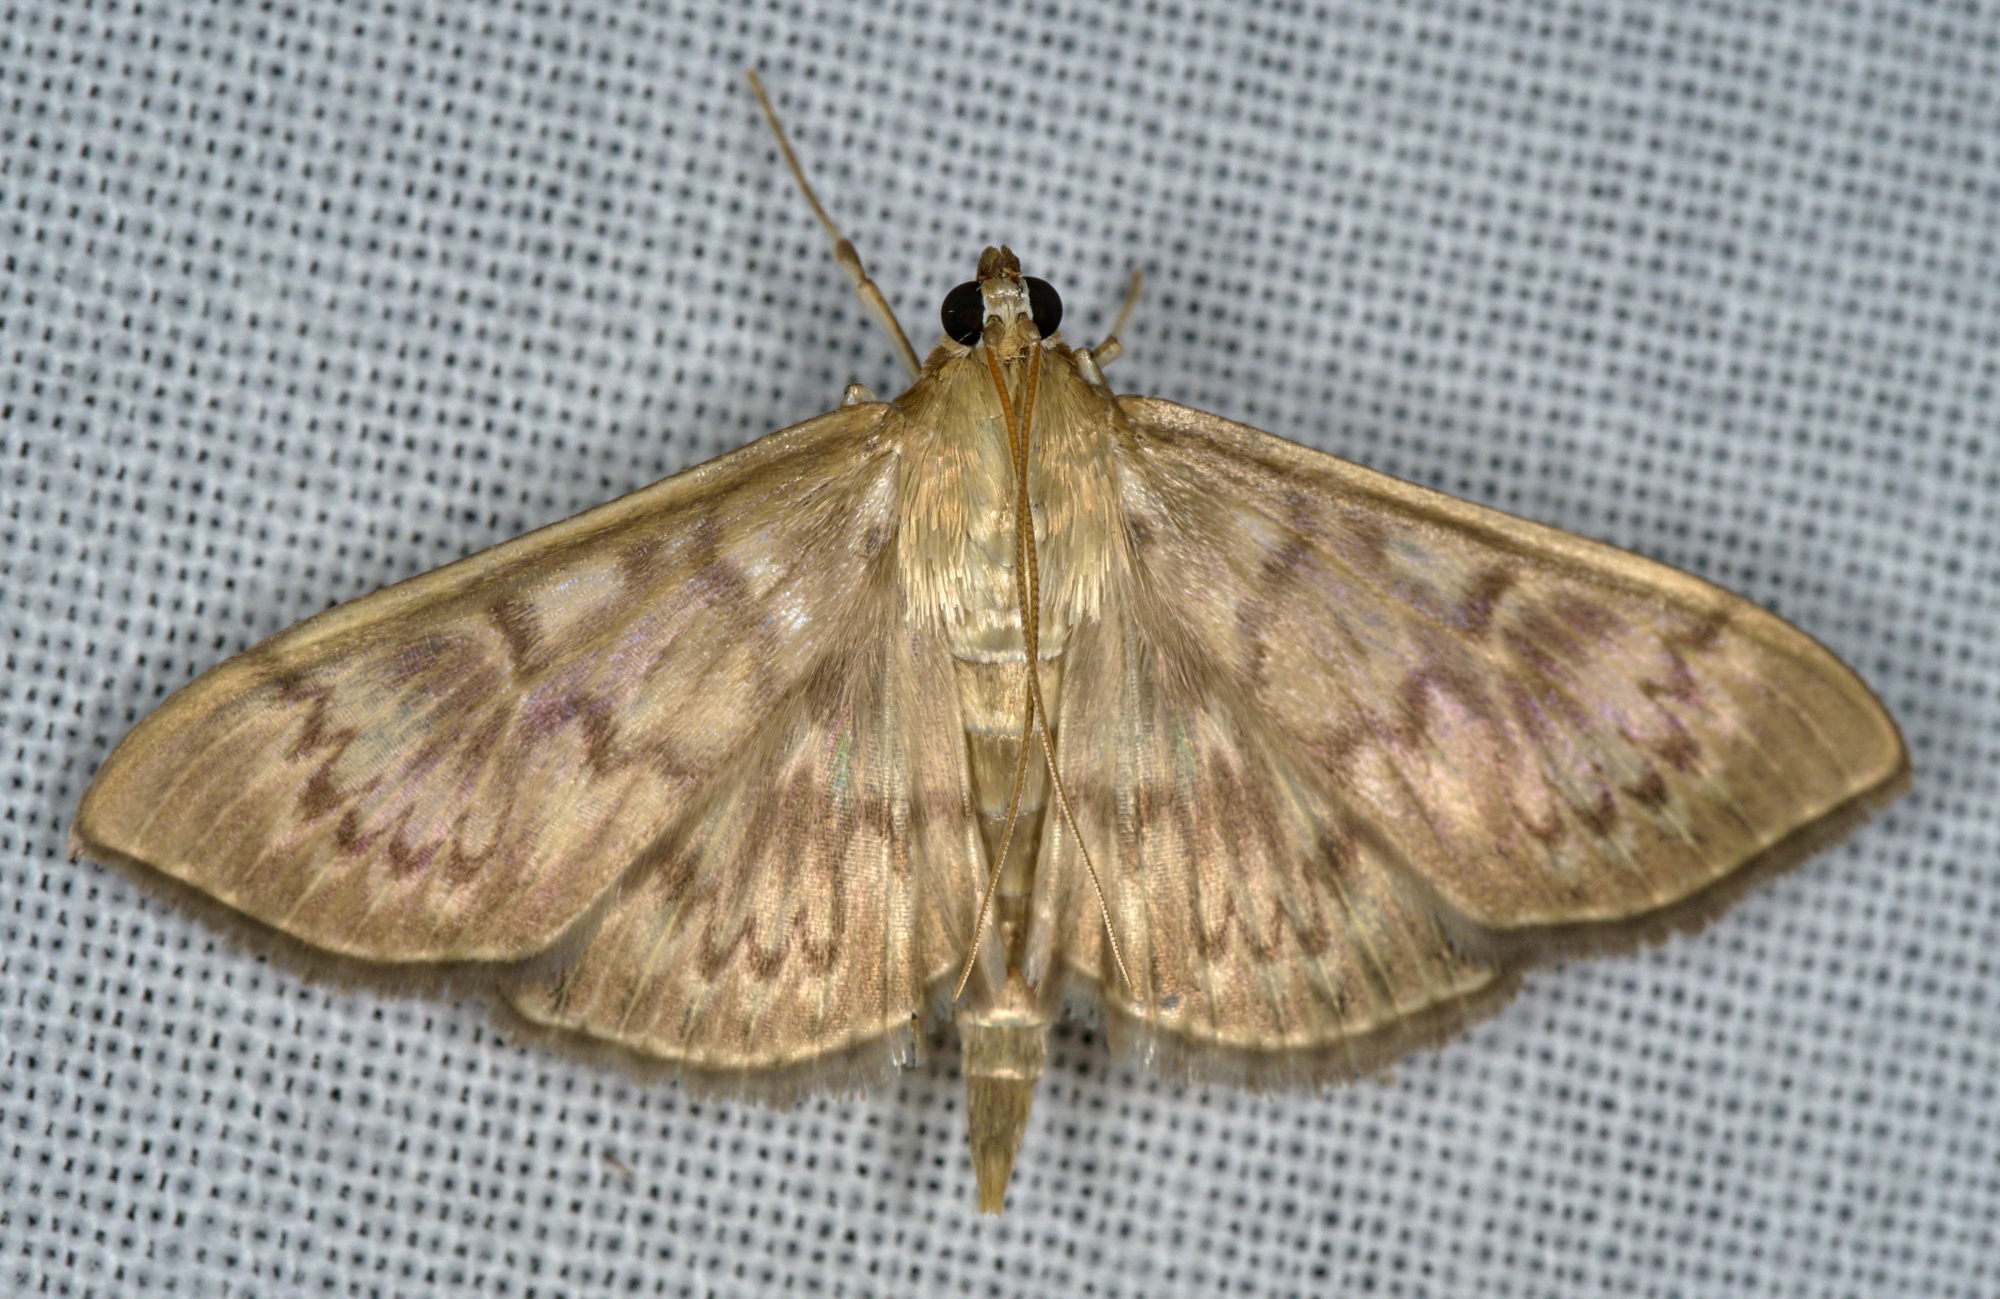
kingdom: Animalia
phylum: Arthropoda
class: Insecta
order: Lepidoptera
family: Crambidae
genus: Patania
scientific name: Patania ruralis
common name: Mother of pearl
